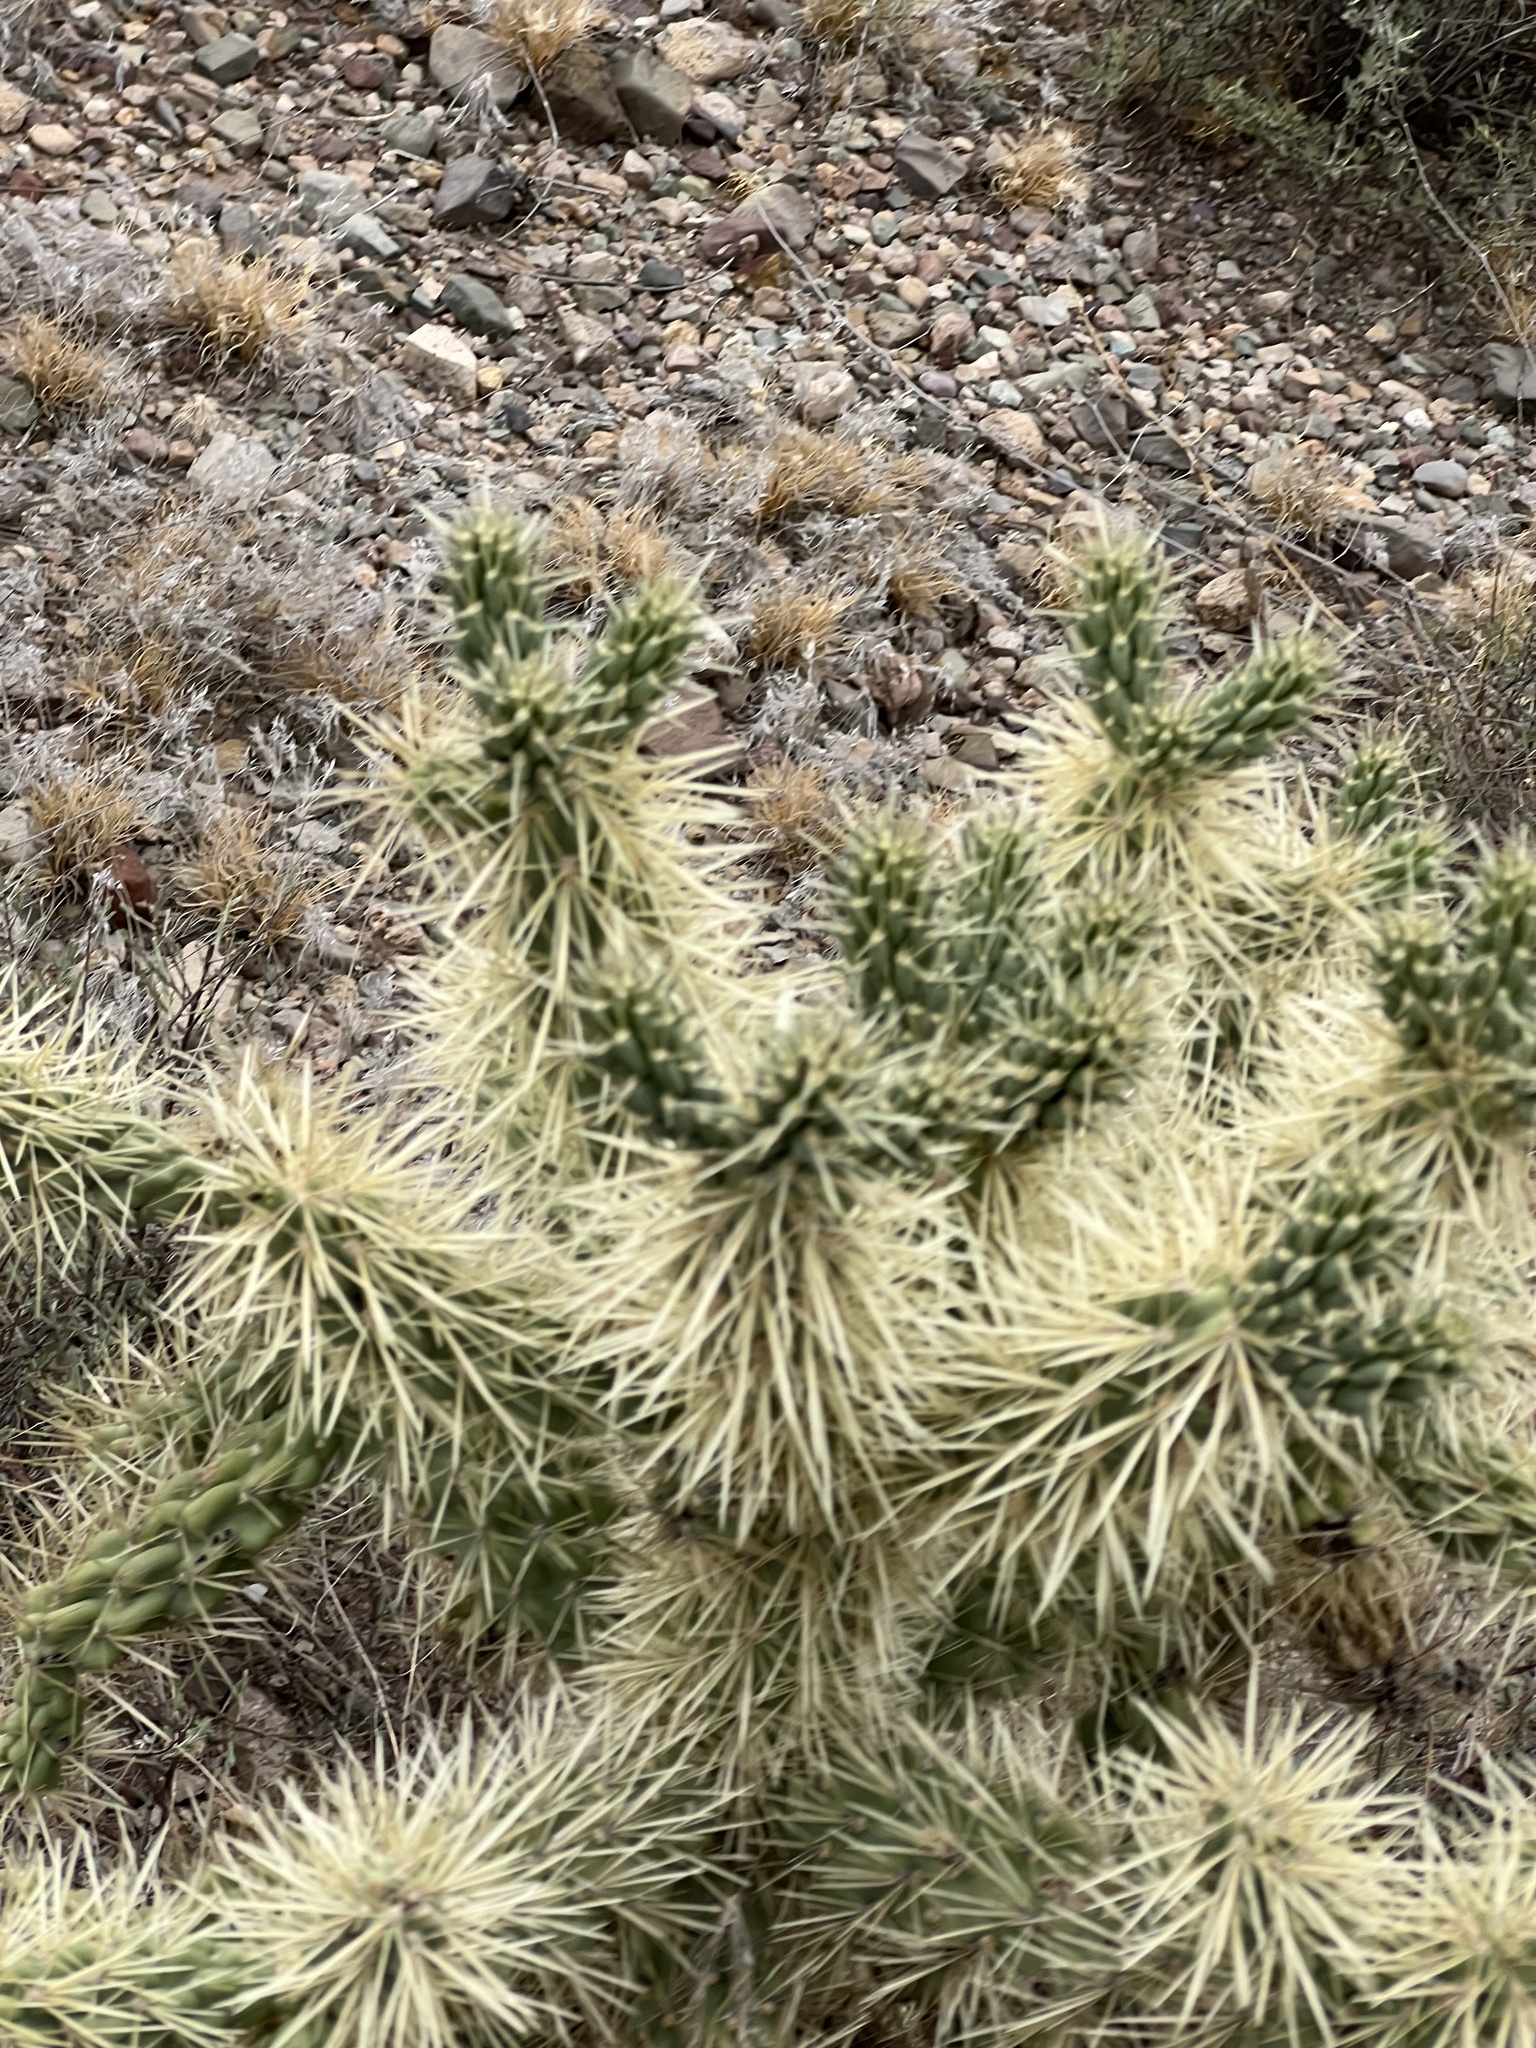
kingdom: Plantae
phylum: Tracheophyta
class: Magnoliopsida
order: Caryophyllales
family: Cactaceae
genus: Cylindropuntia
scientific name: Cylindropuntia fulgida
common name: Jumping cholla
